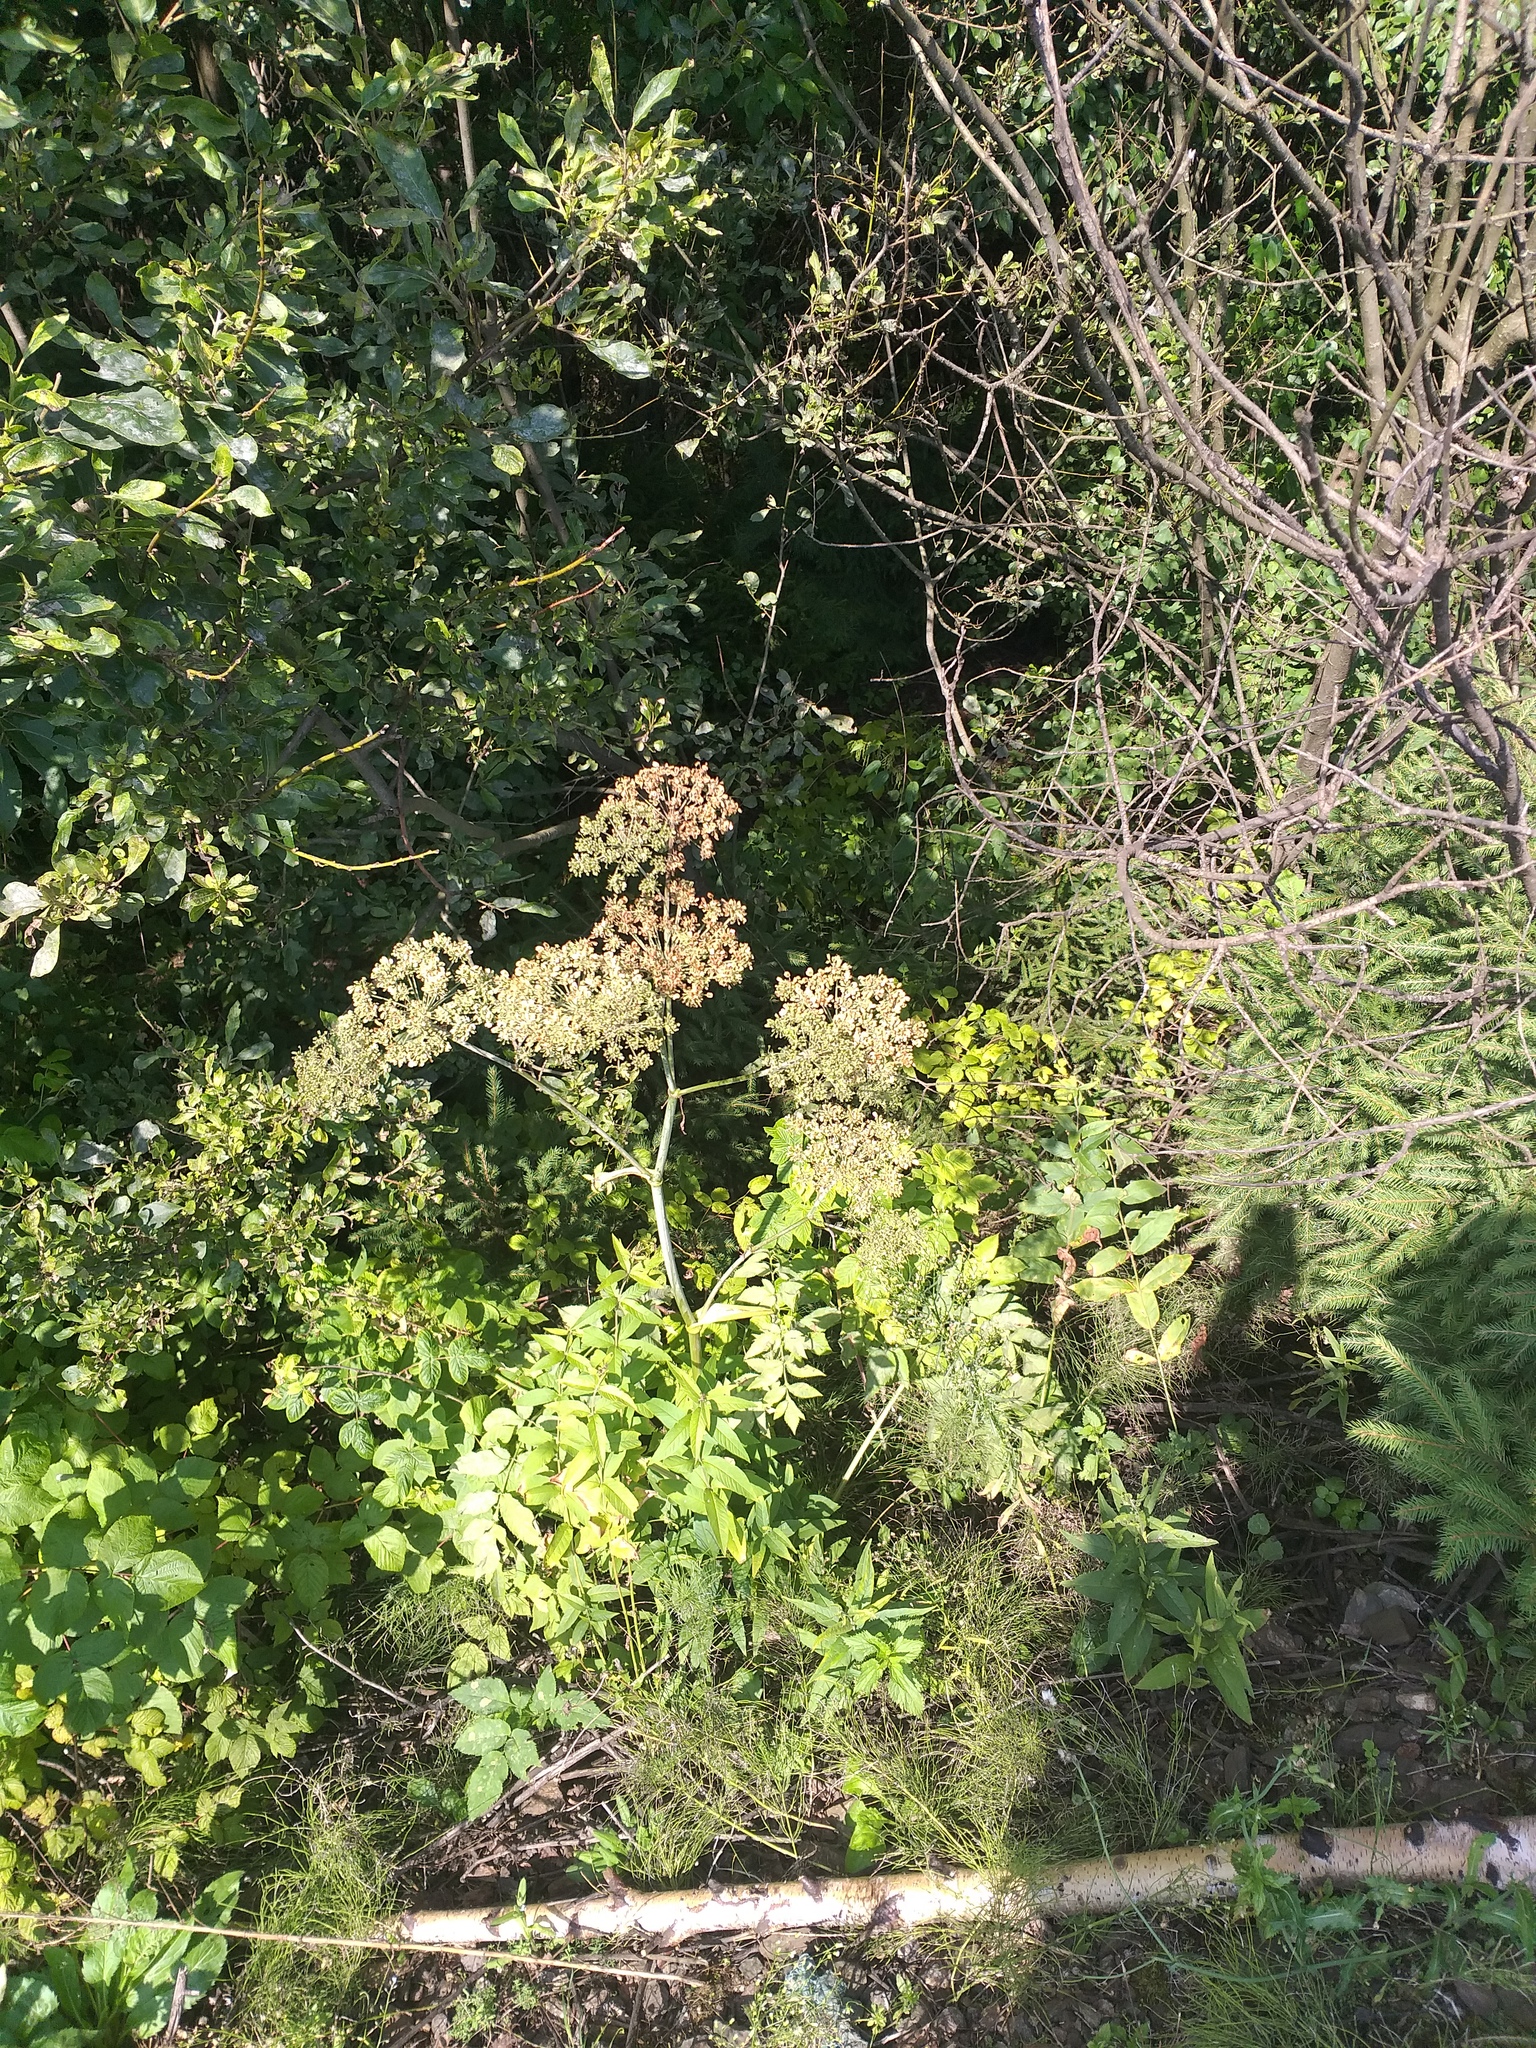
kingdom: Plantae
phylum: Tracheophyta
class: Magnoliopsida
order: Apiales
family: Apiaceae
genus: Angelica
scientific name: Angelica sylvestris
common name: Wild angelica
